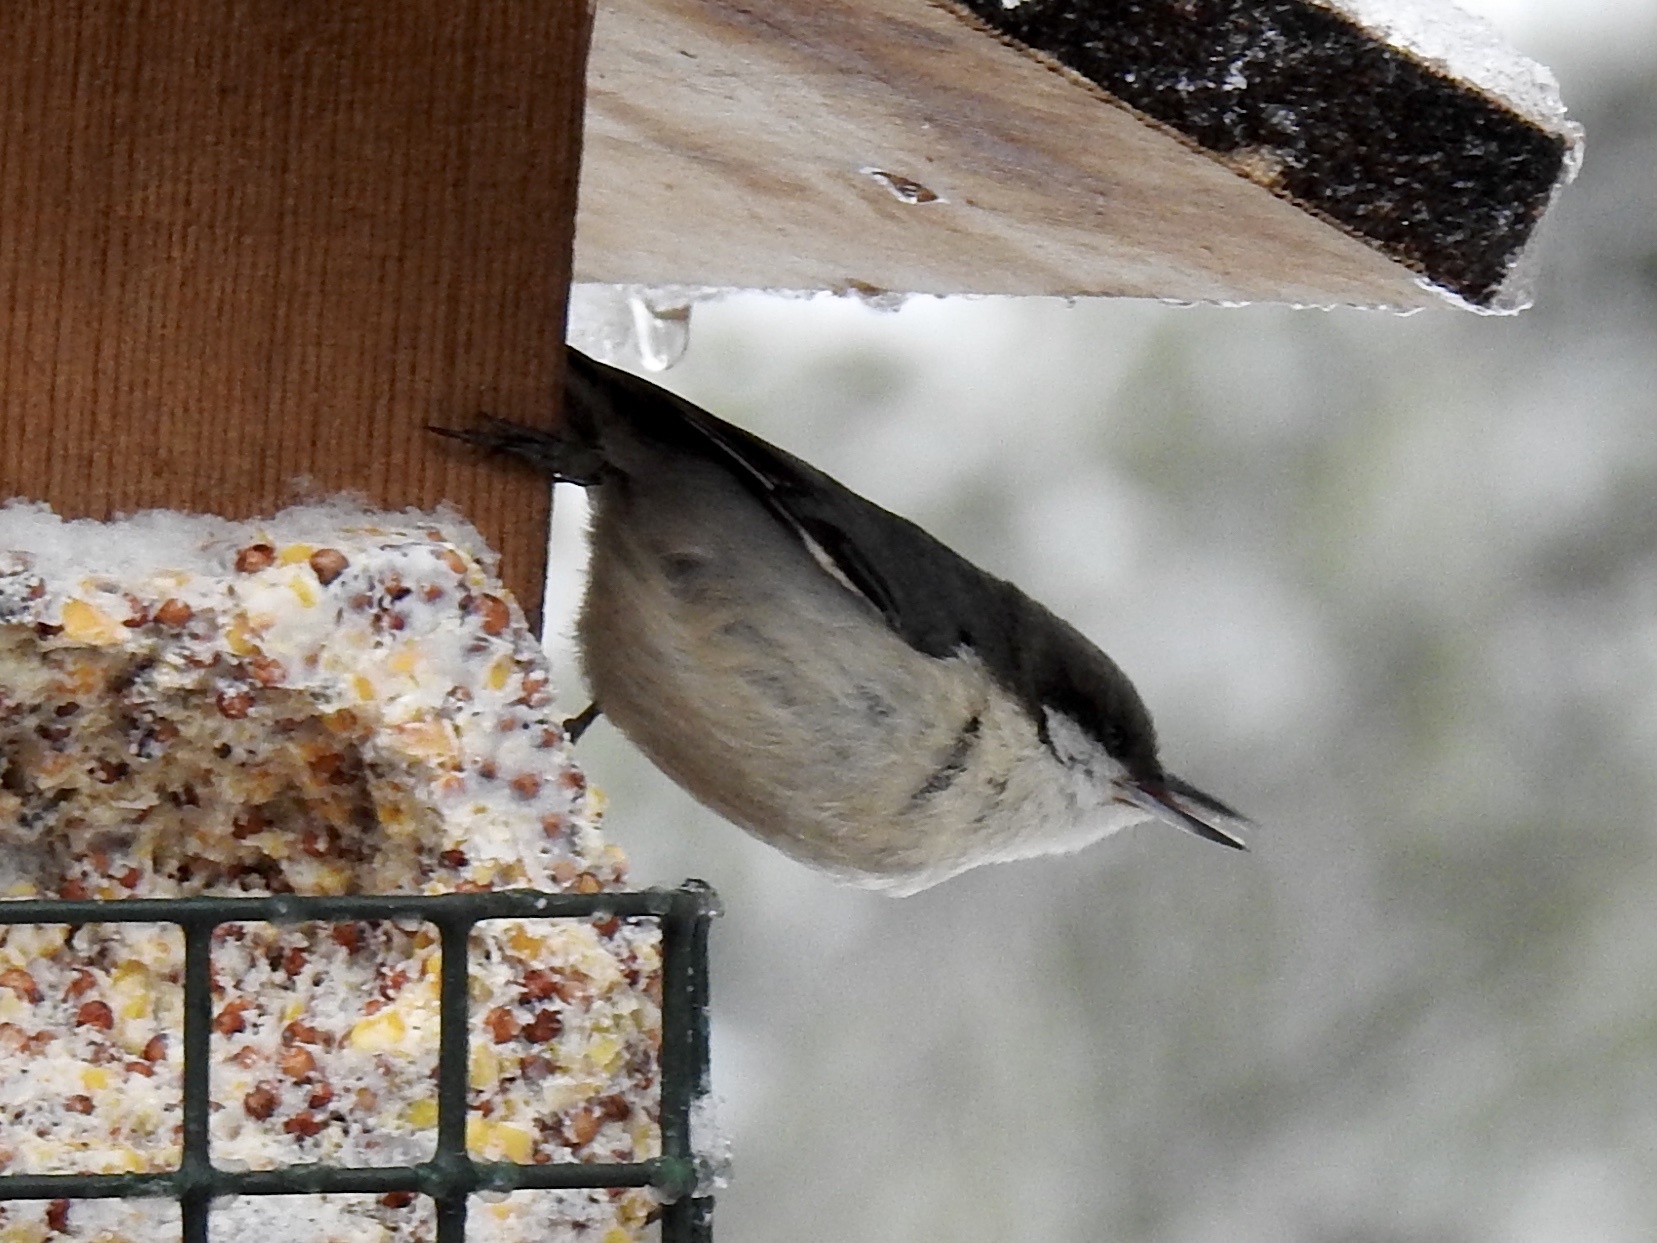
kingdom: Animalia
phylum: Chordata
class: Aves
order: Passeriformes
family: Sittidae
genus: Sitta
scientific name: Sitta pygmaea
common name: Pygmy nuthatch
